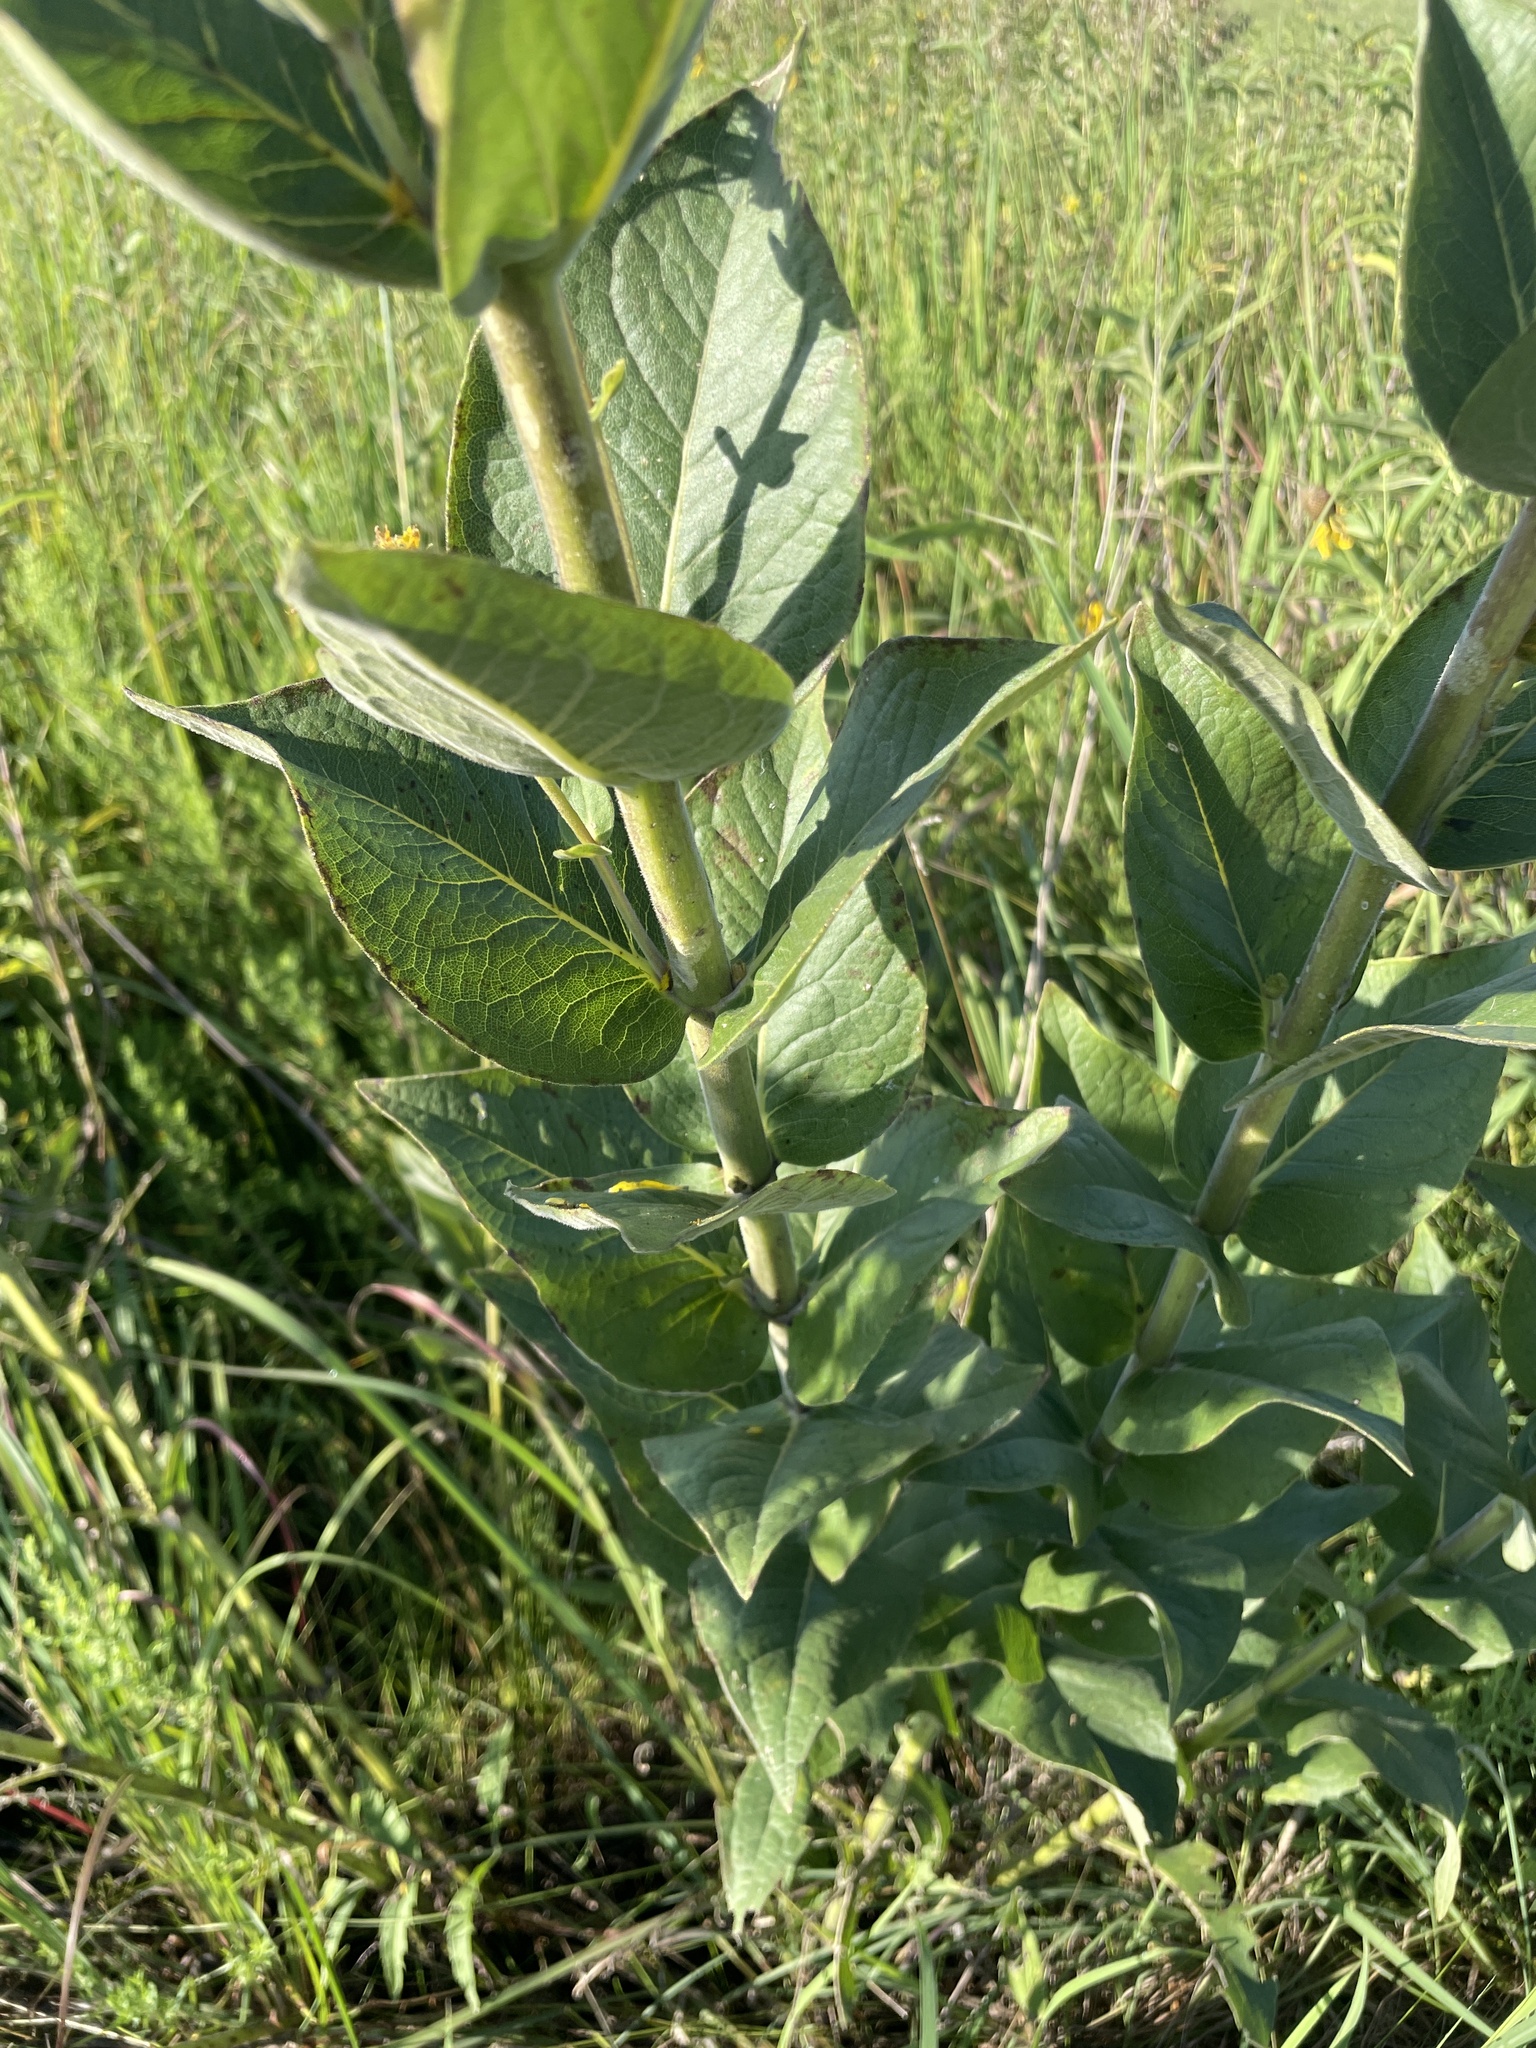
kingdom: Plantae
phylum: Tracheophyta
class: Magnoliopsida
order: Asterales
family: Asteraceae
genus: Silphium
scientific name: Silphium perfoliatum
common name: Cup-plant
